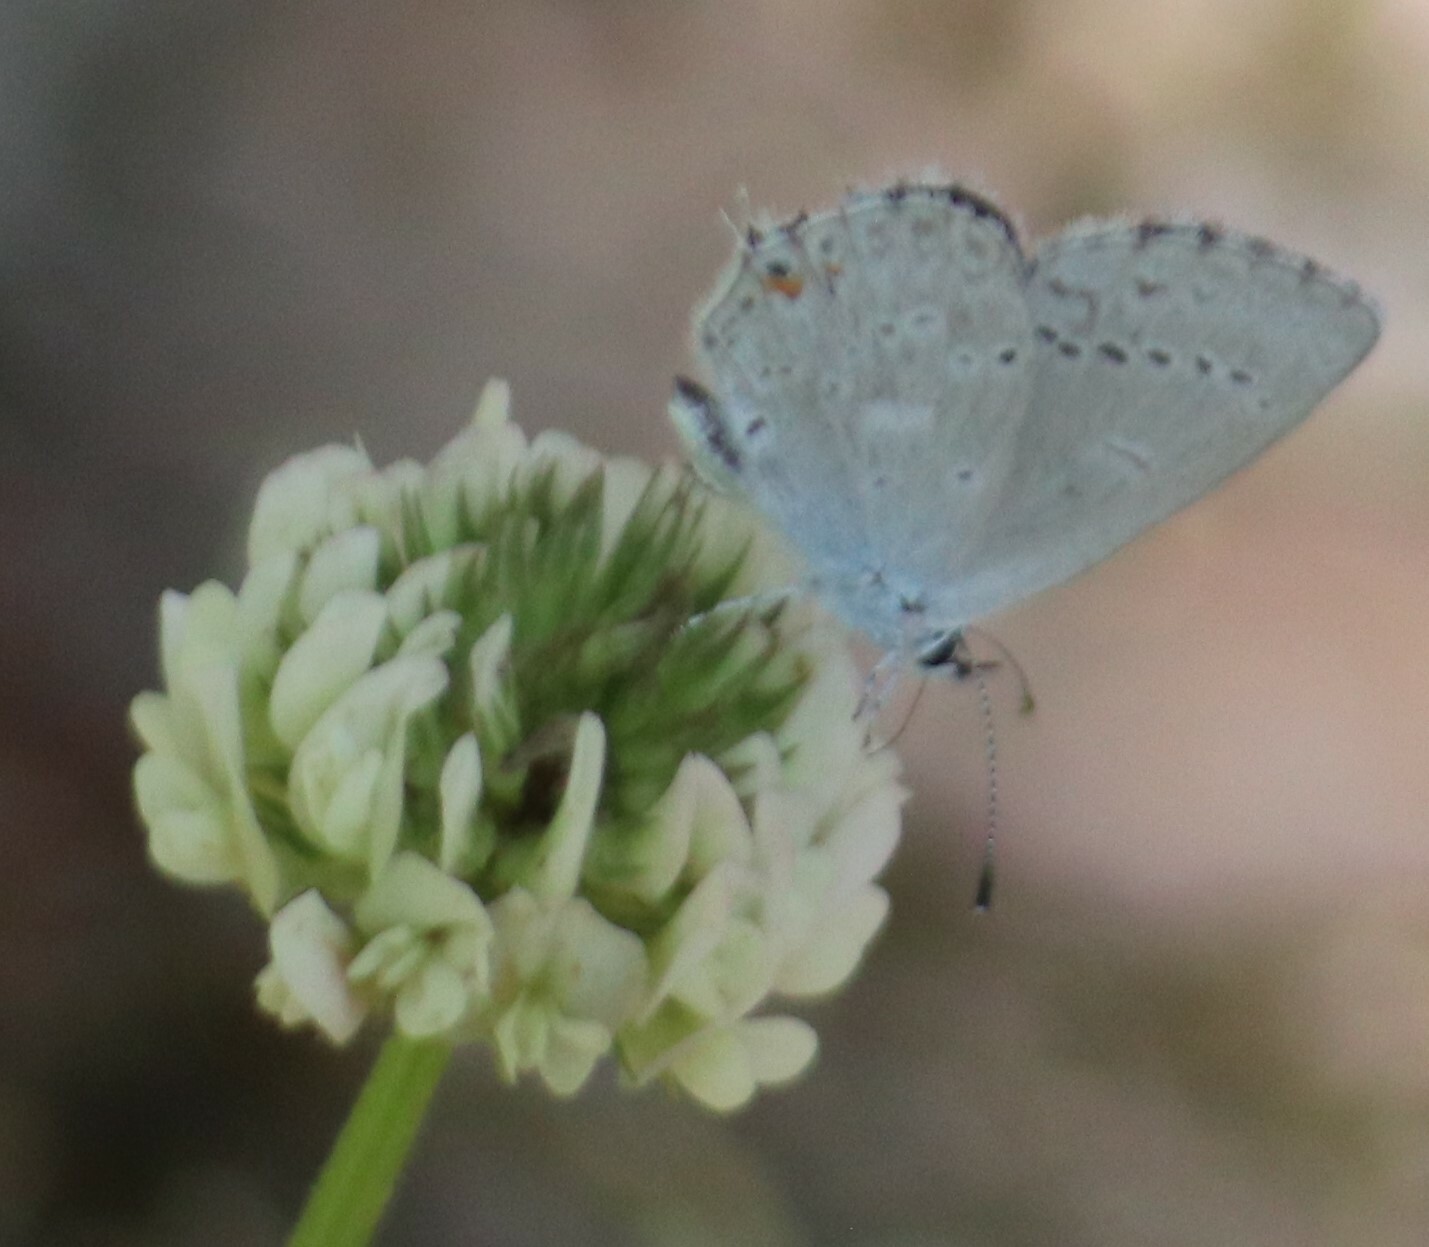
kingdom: Animalia
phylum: Arthropoda
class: Insecta
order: Lepidoptera
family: Lycaenidae
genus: Elkalyce
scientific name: Elkalyce amyntula
